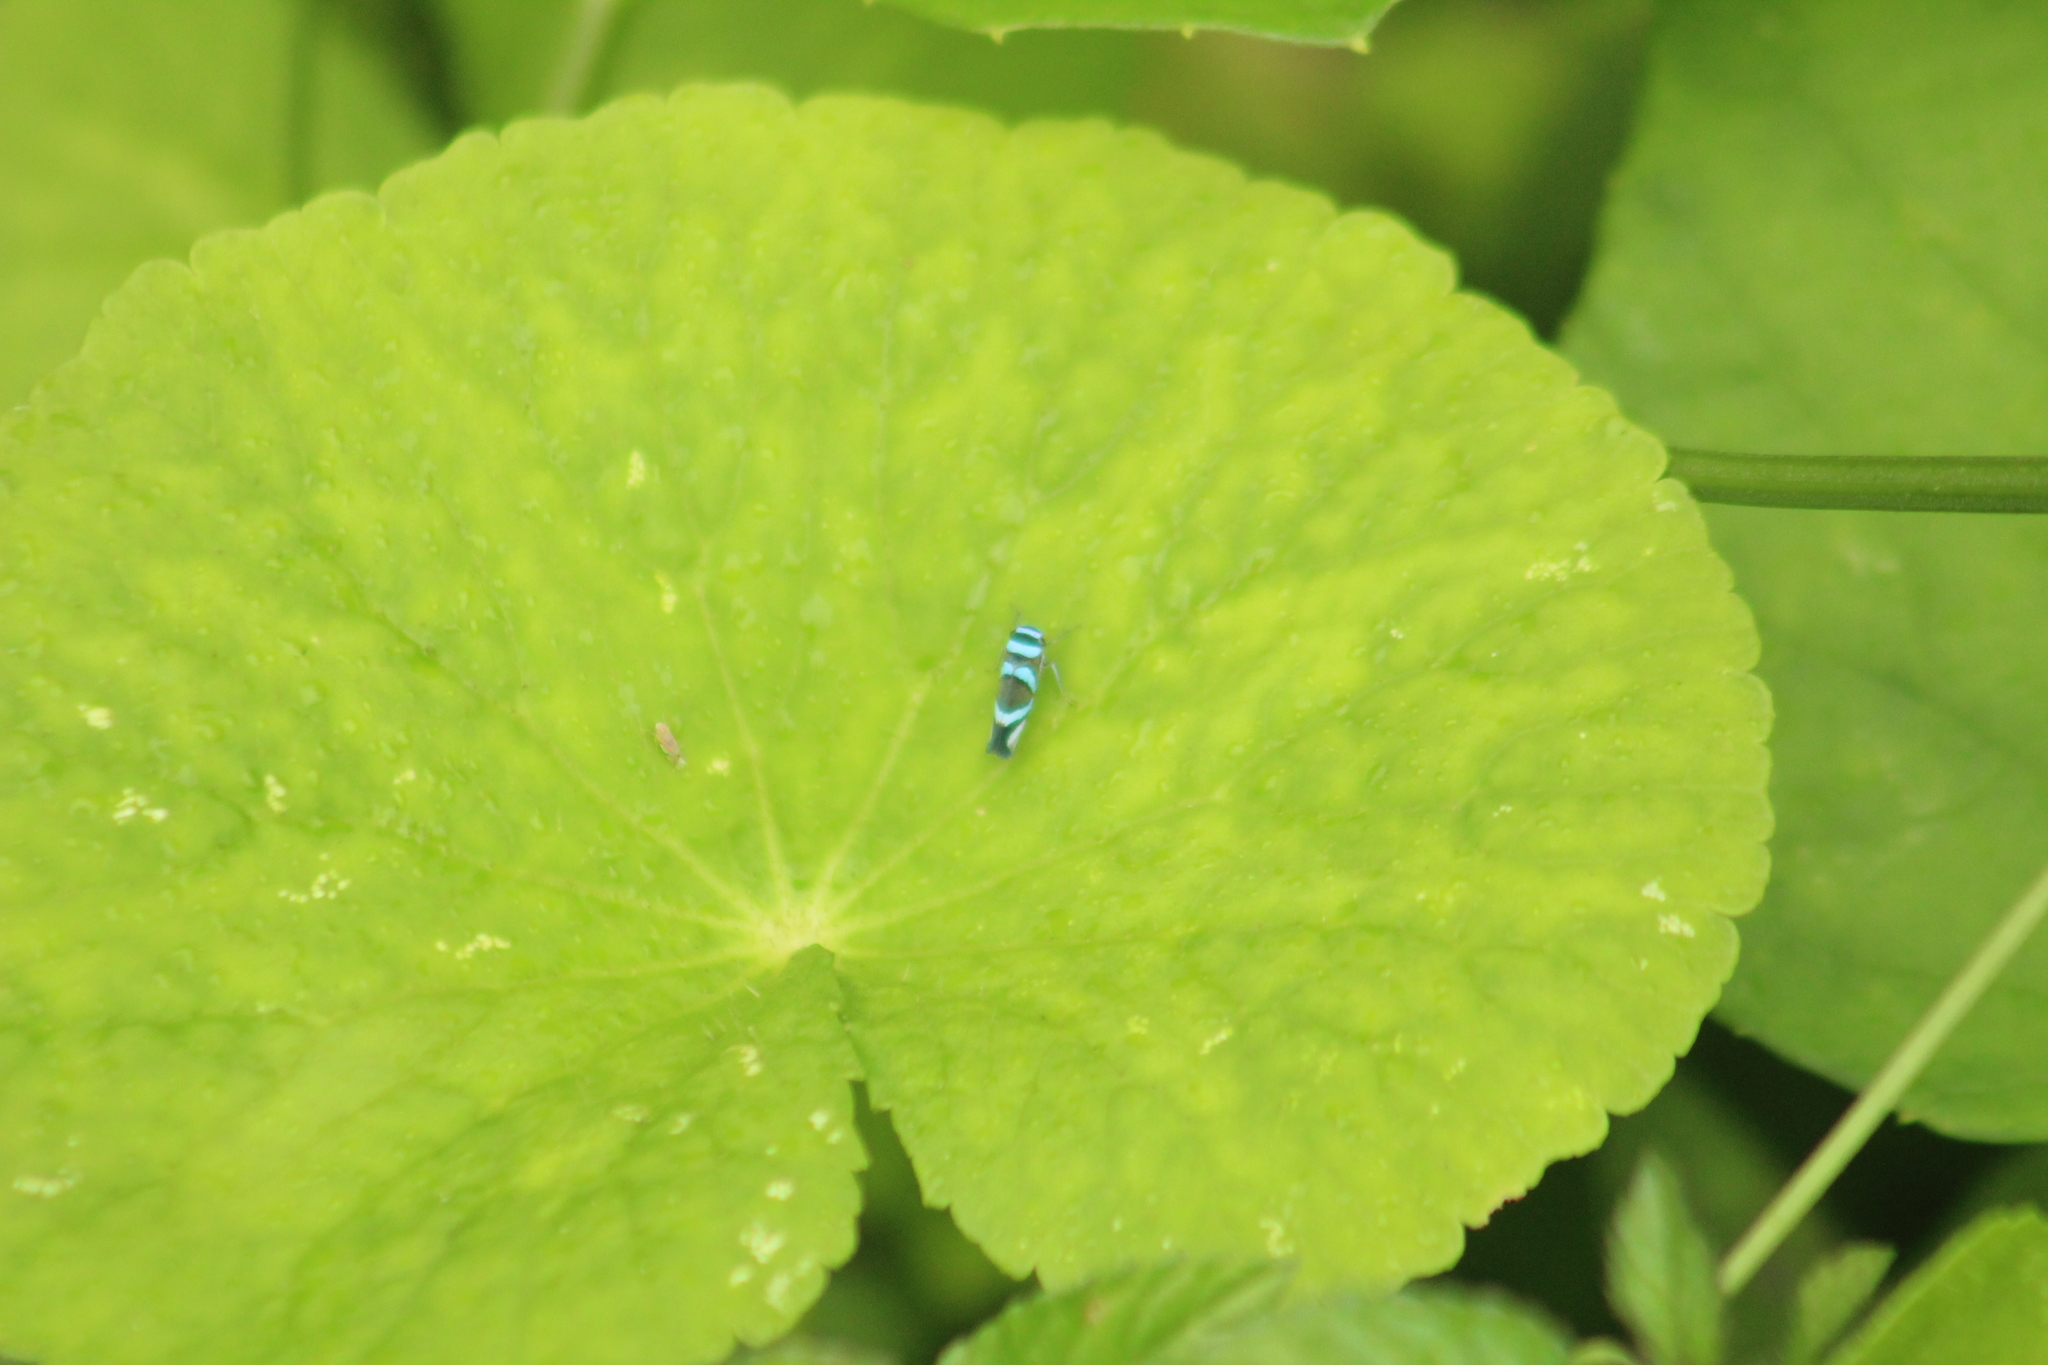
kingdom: Animalia
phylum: Arthropoda
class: Insecta
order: Hemiptera
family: Cicadellidae
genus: Macugonalia
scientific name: Macugonalia moesta
